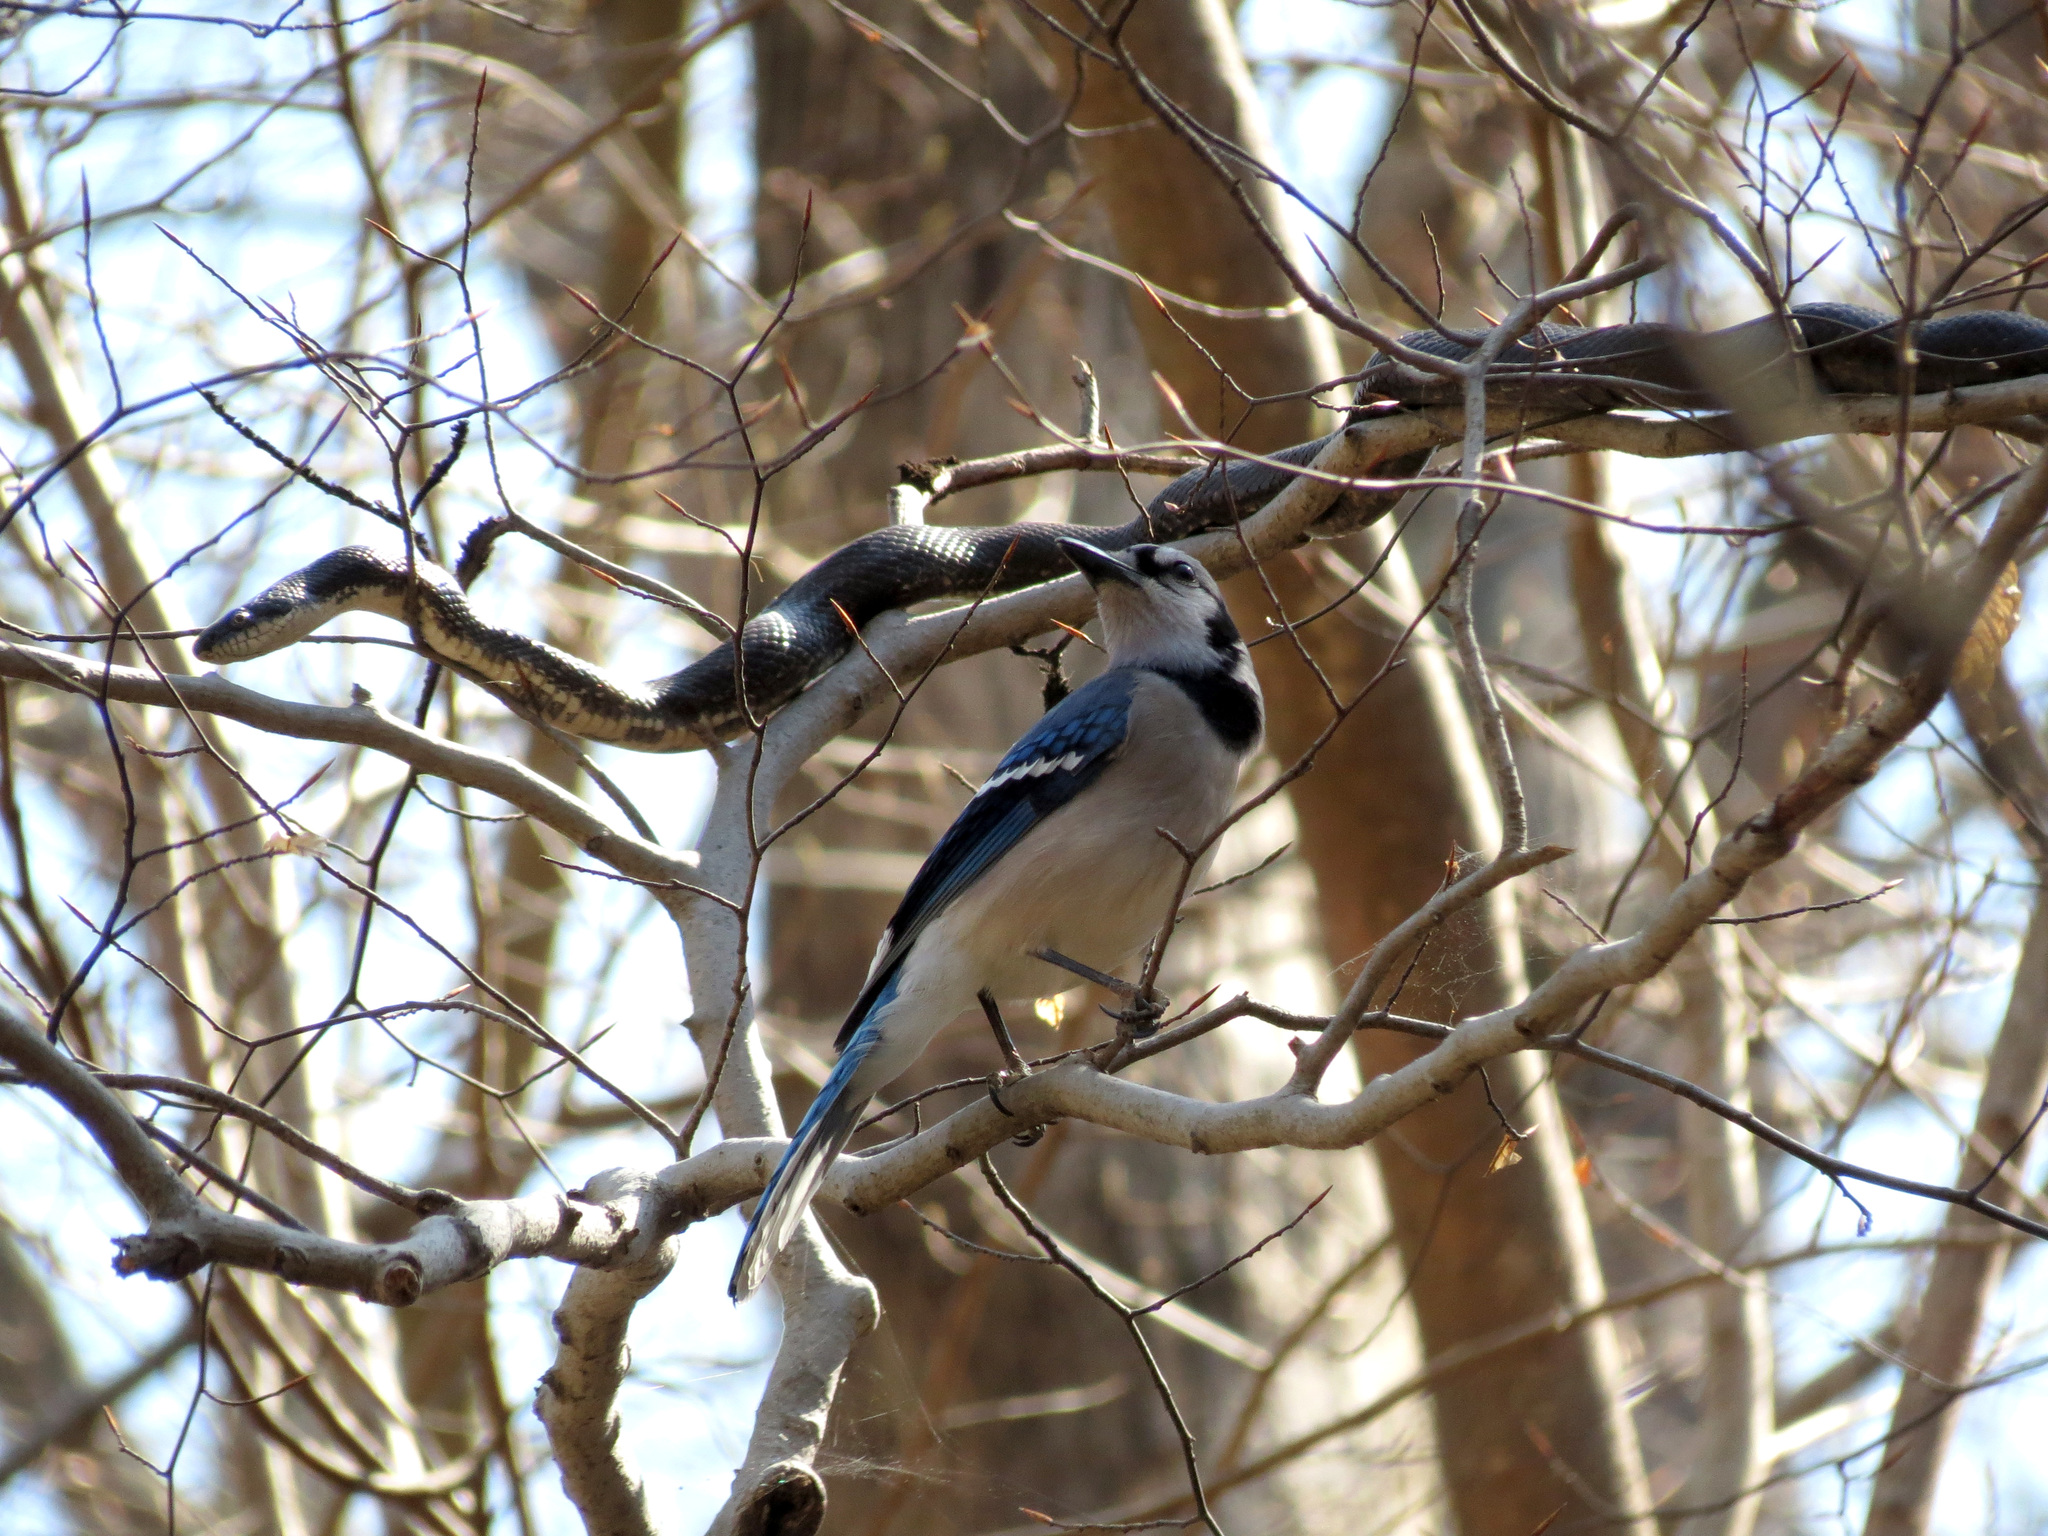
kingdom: Animalia
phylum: Chordata
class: Squamata
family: Colubridae
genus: Pantherophis
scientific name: Pantherophis alleghaniensis
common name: Eastern rat snake
